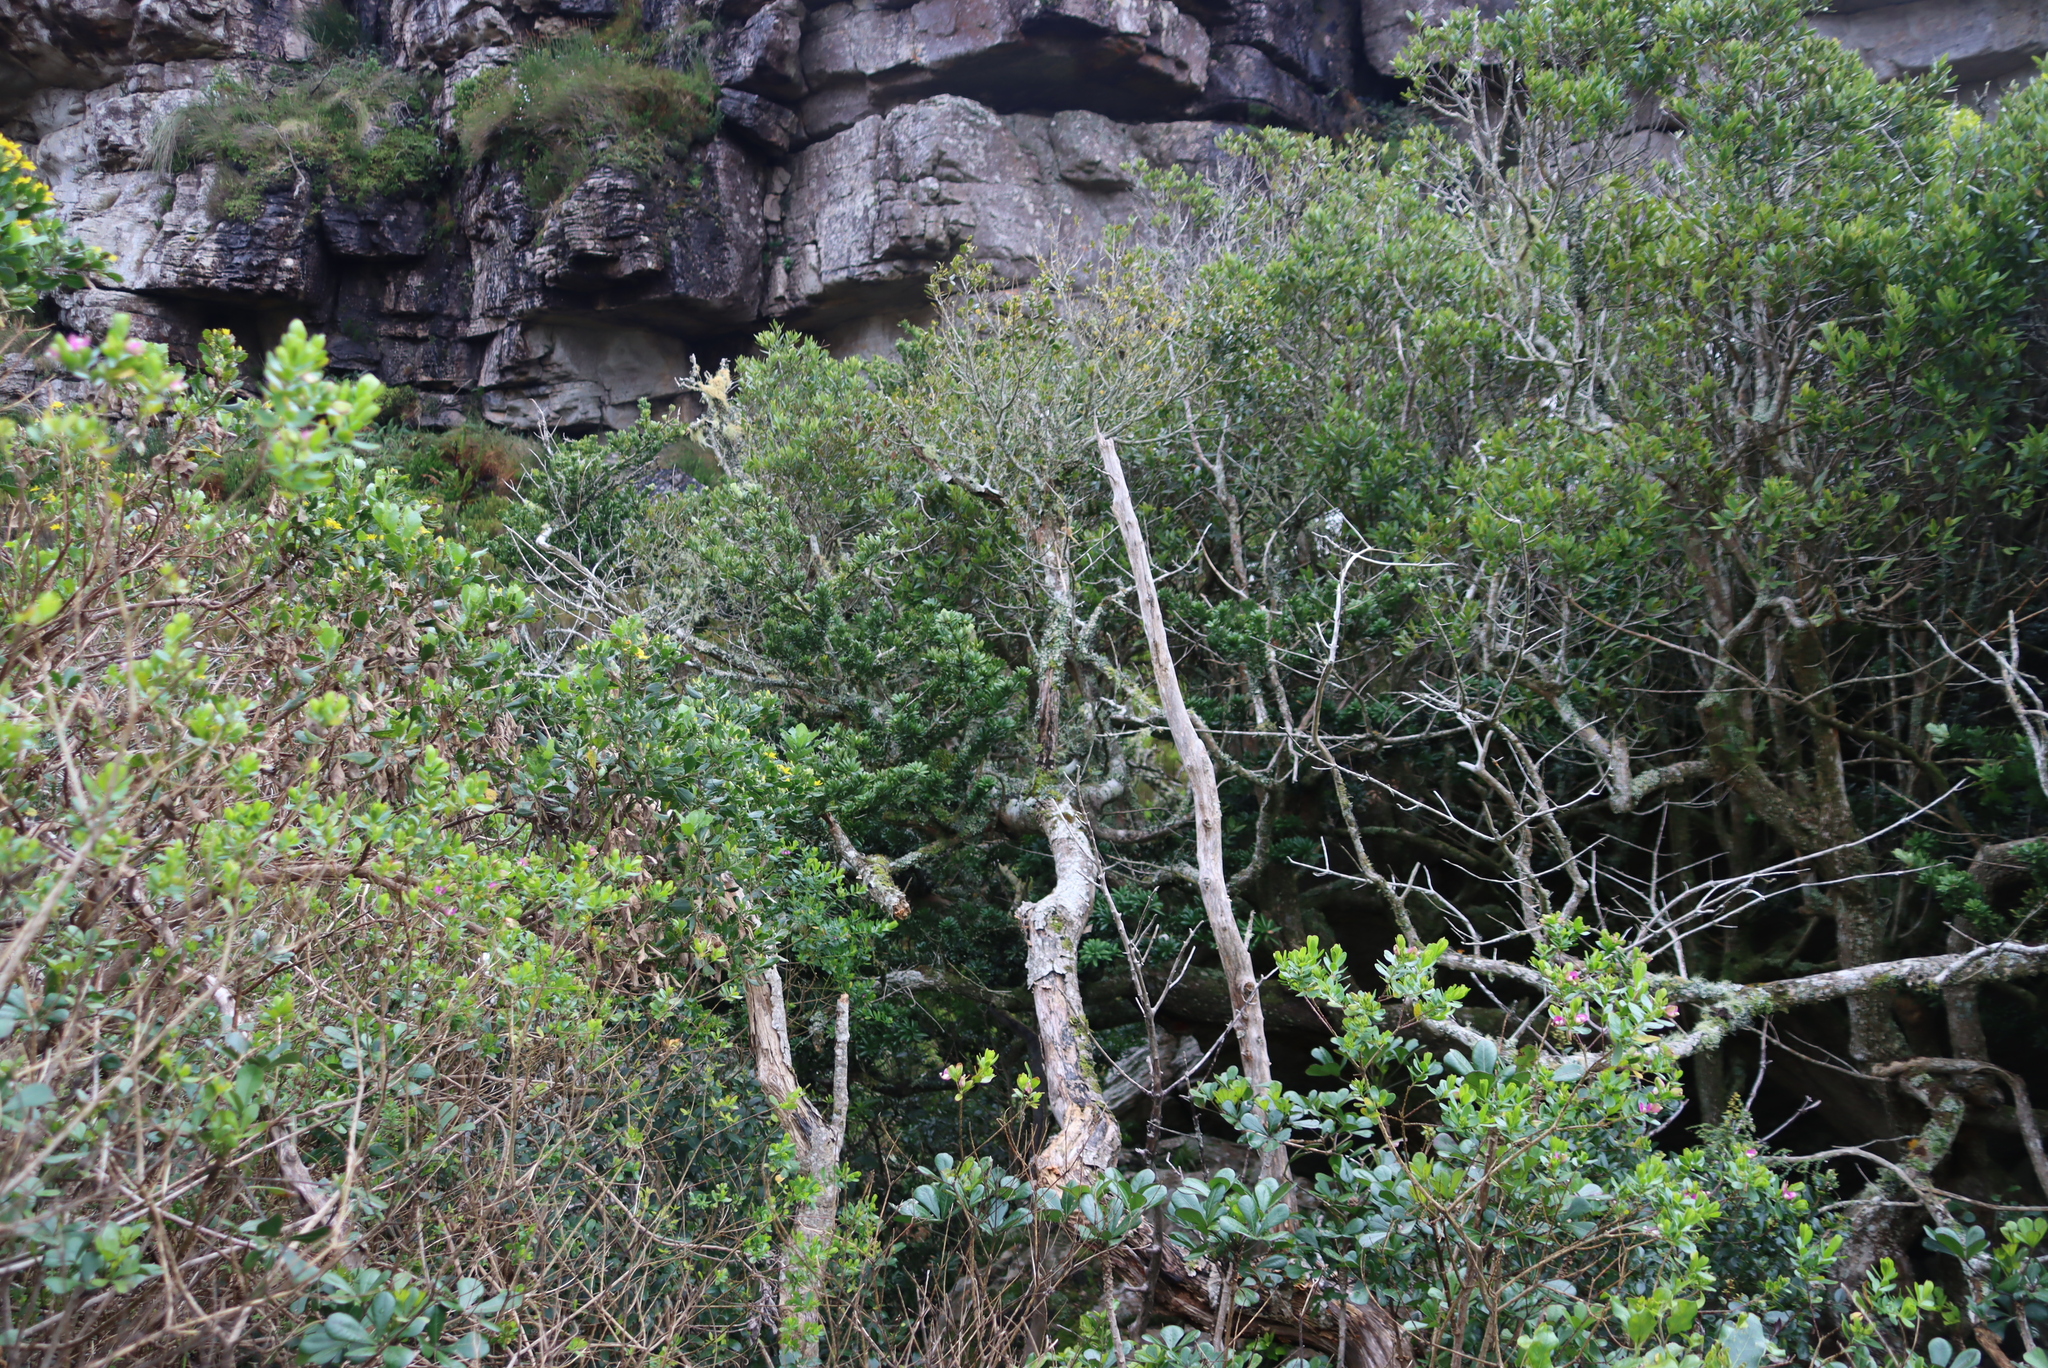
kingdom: Plantae
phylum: Tracheophyta
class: Magnoliopsida
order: Lamiales
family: Oleaceae
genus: Olea
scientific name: Olea europaea
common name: Olive
